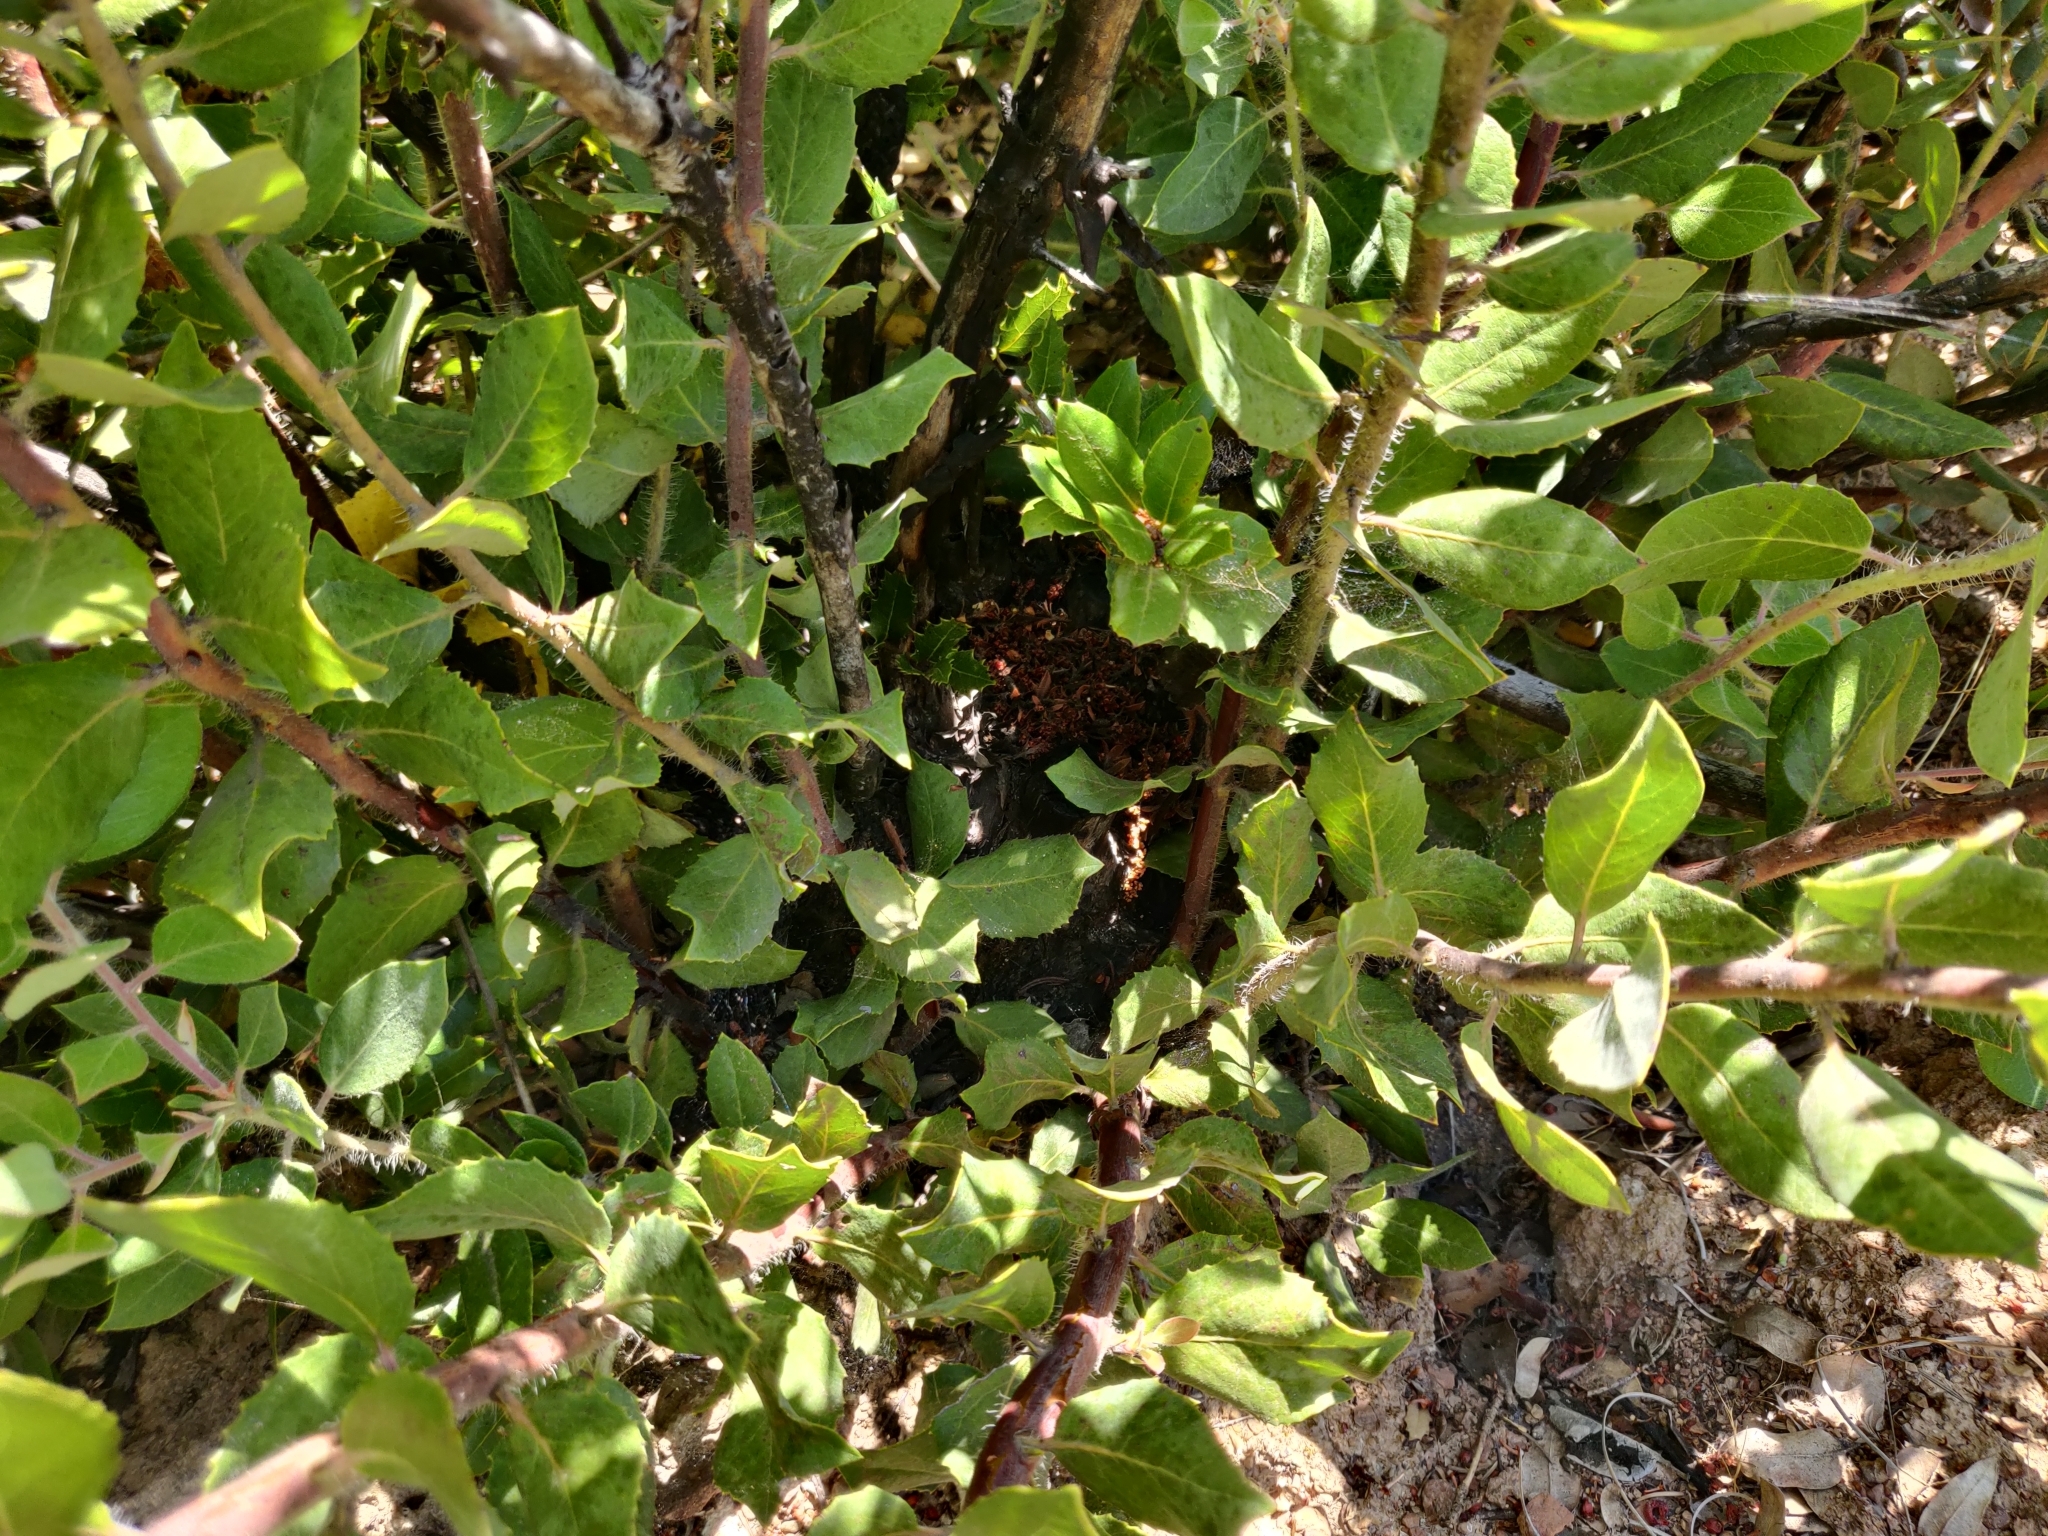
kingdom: Plantae
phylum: Tracheophyta
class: Magnoliopsida
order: Ericales
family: Ericaceae
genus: Arctostaphylos
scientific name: Arctostaphylos crustacea
